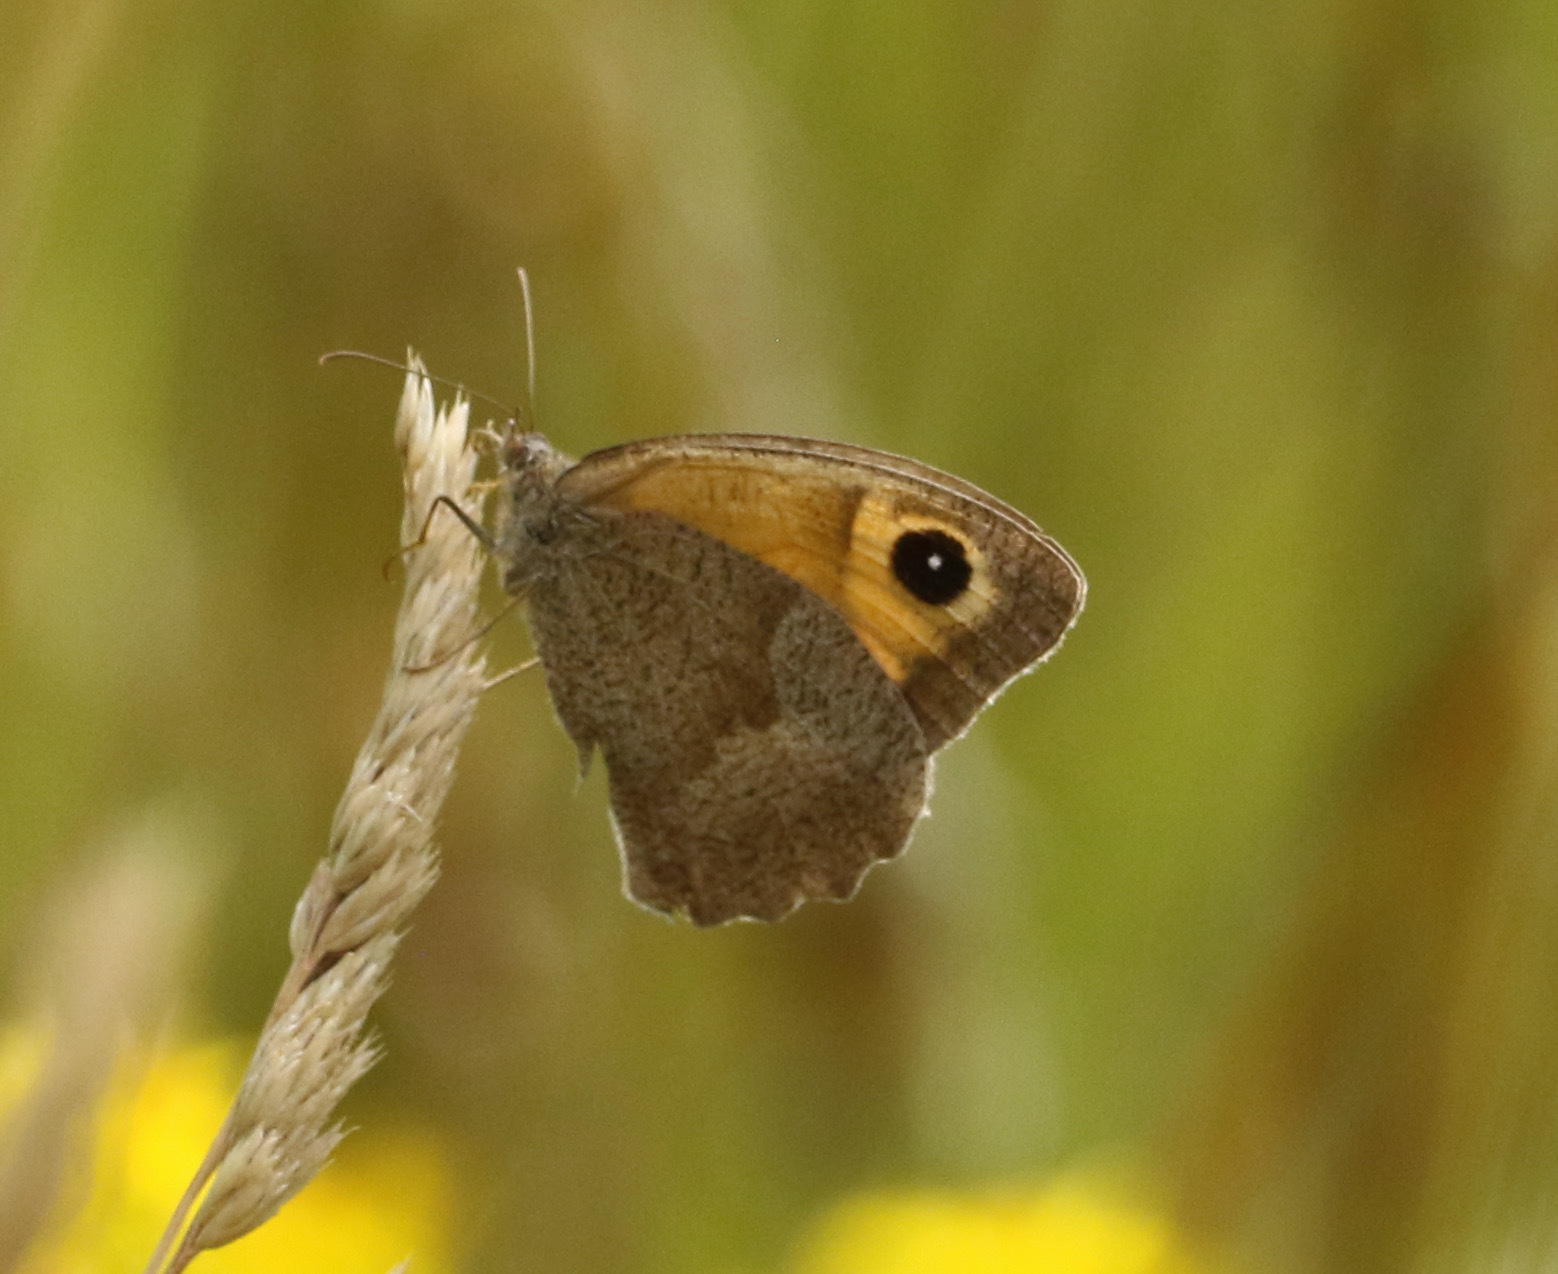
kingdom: Animalia
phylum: Arthropoda
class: Insecta
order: Lepidoptera
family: Nymphalidae
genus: Maniola
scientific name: Maniola jurtina
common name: Meadow brown
